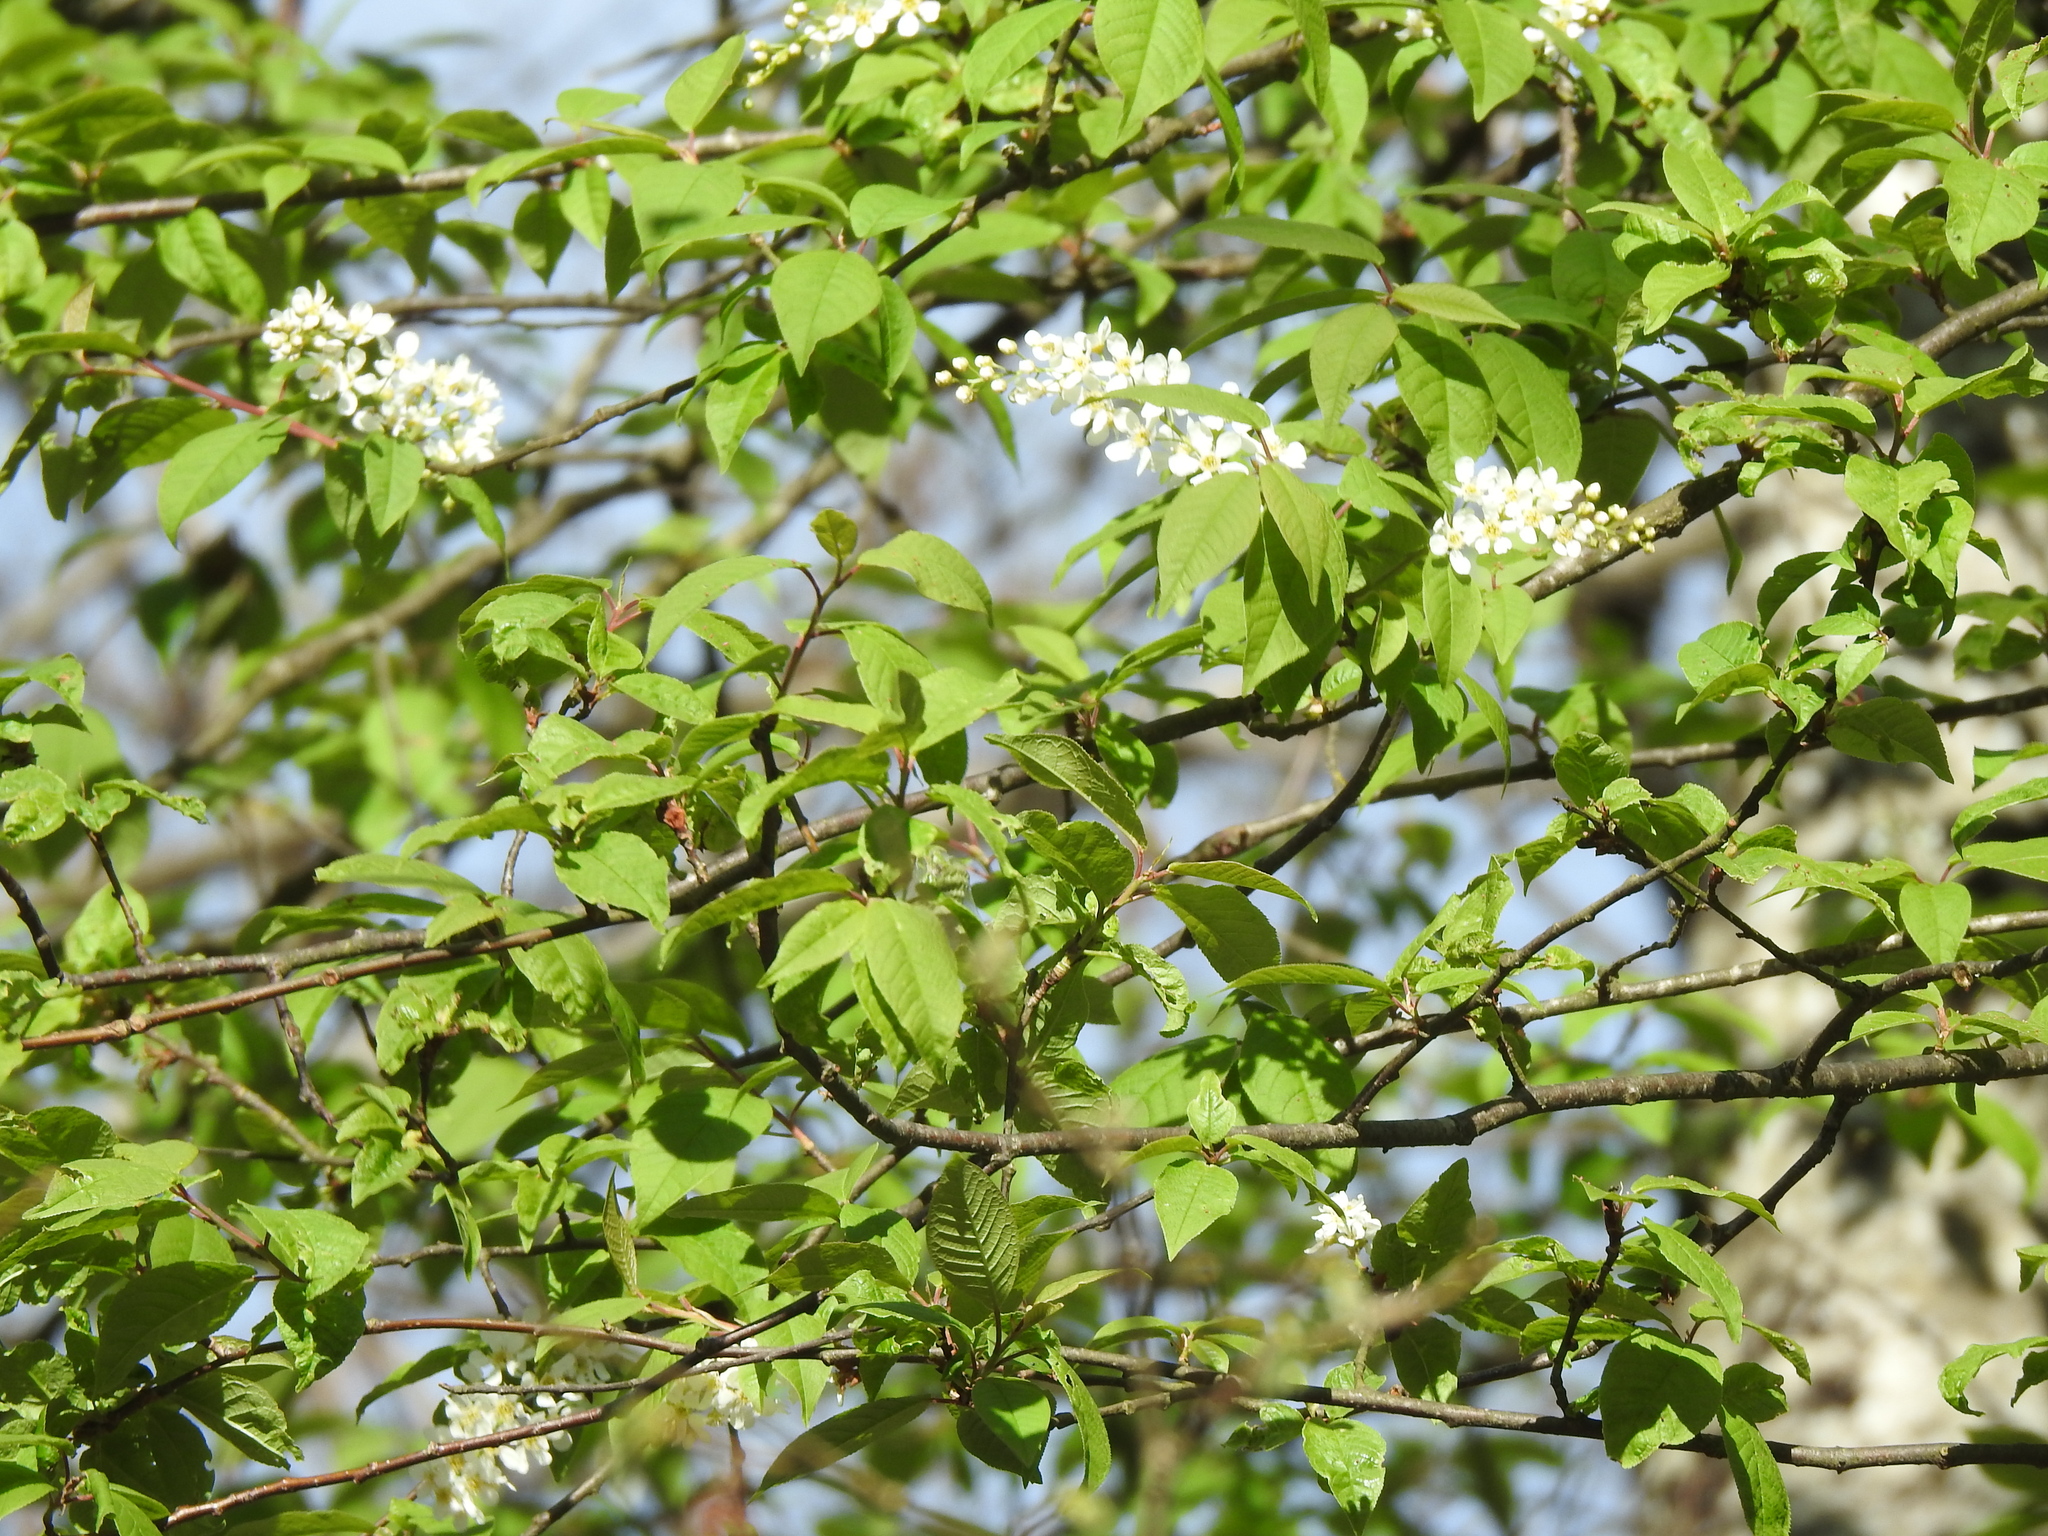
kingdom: Plantae
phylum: Tracheophyta
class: Magnoliopsida
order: Rosales
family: Rosaceae
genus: Prunus
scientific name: Prunus padus
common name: Bird cherry
